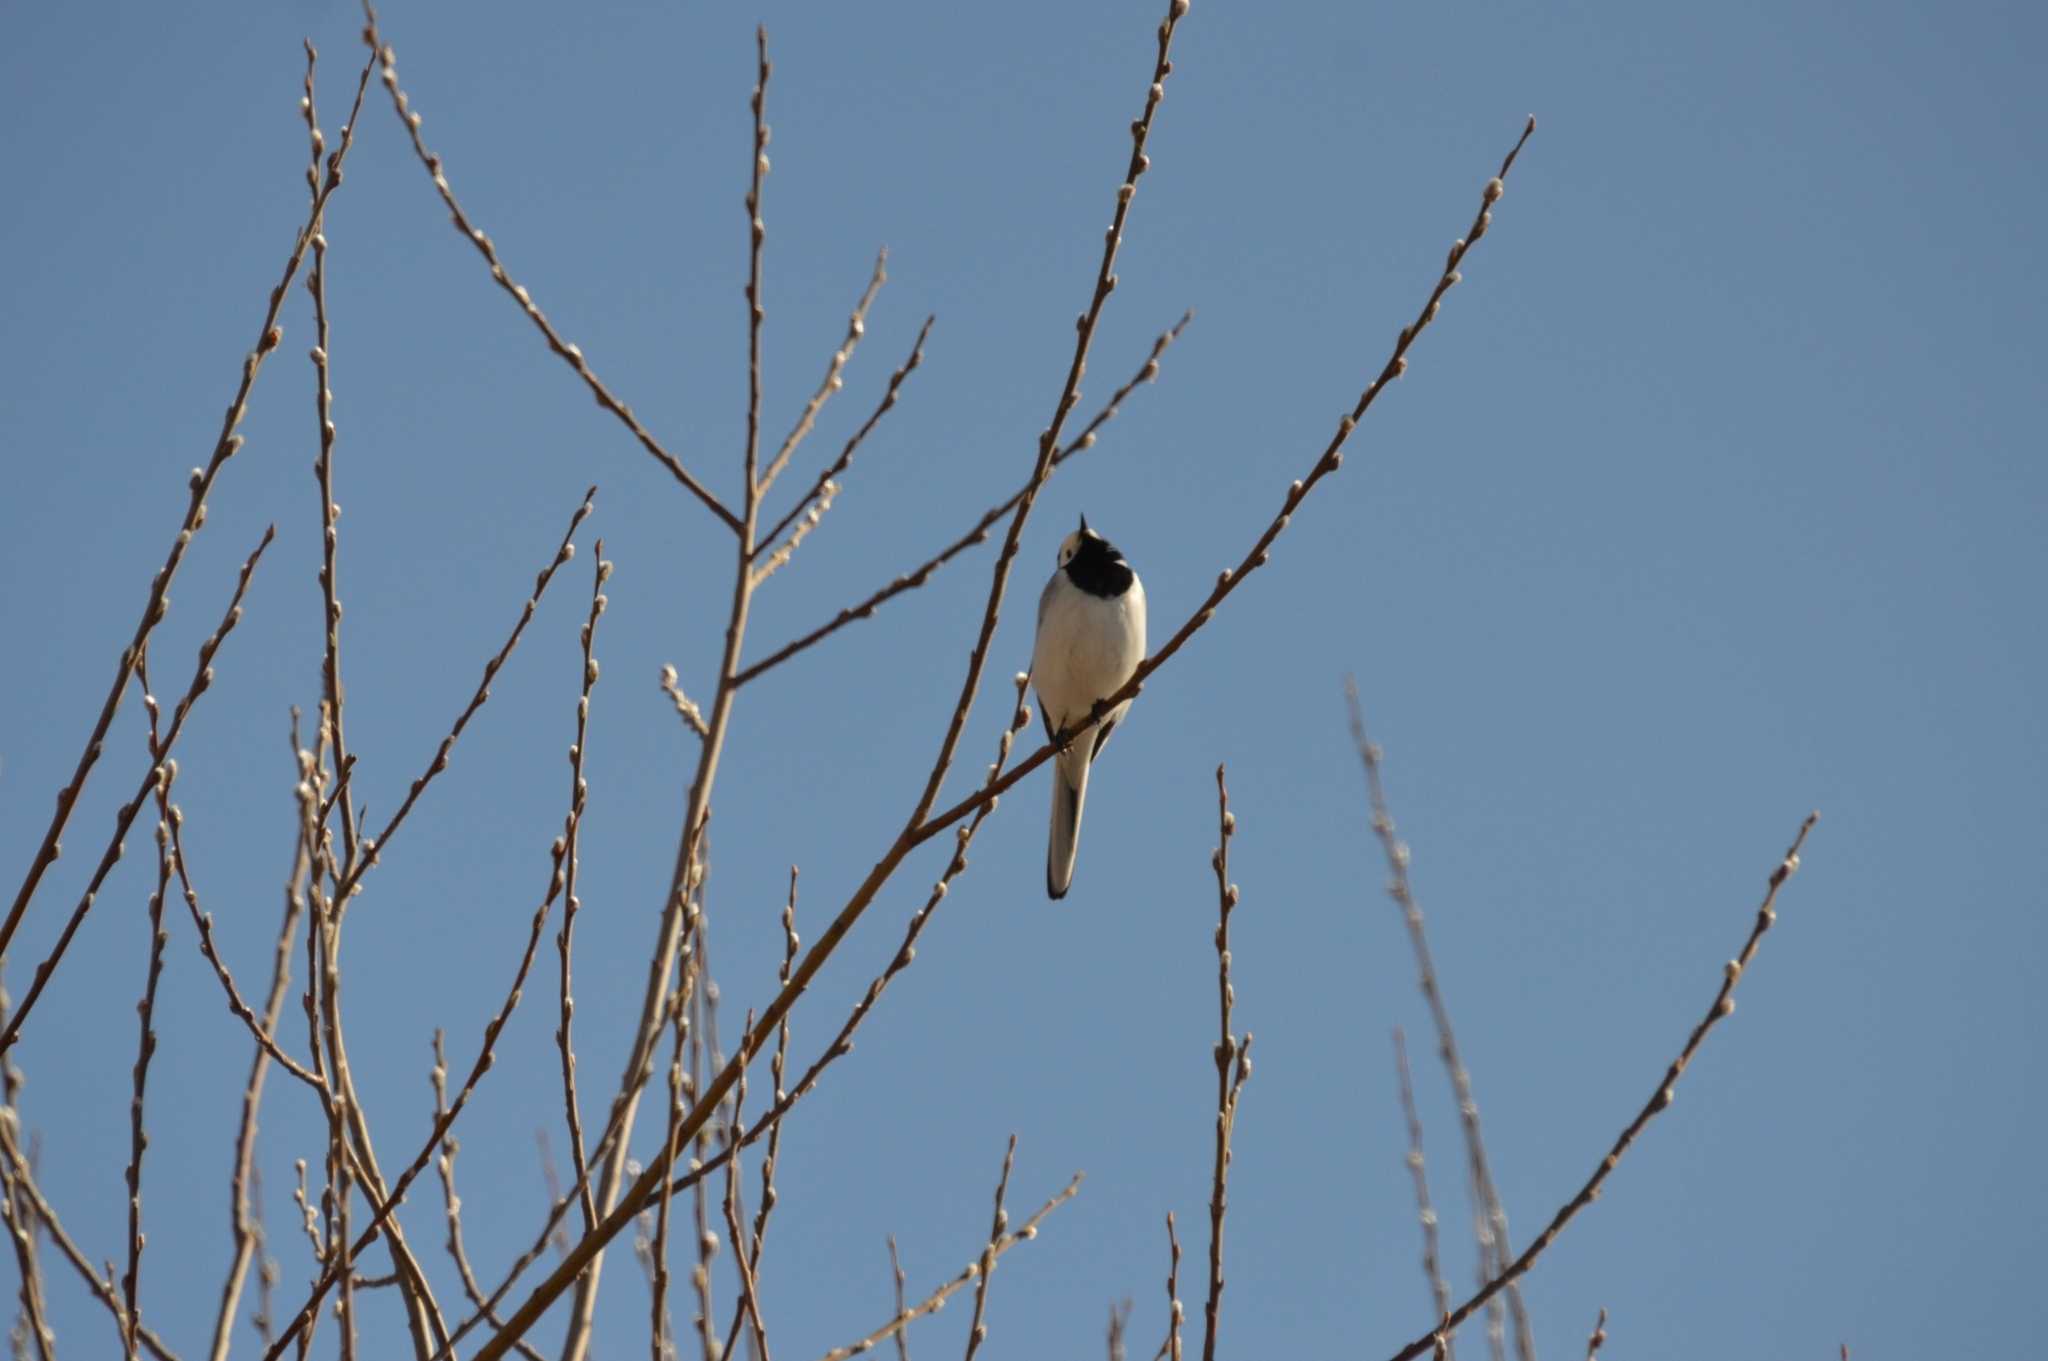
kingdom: Animalia
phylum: Chordata
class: Aves
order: Passeriformes
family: Motacillidae
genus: Motacilla
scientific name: Motacilla alba
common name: White wagtail
